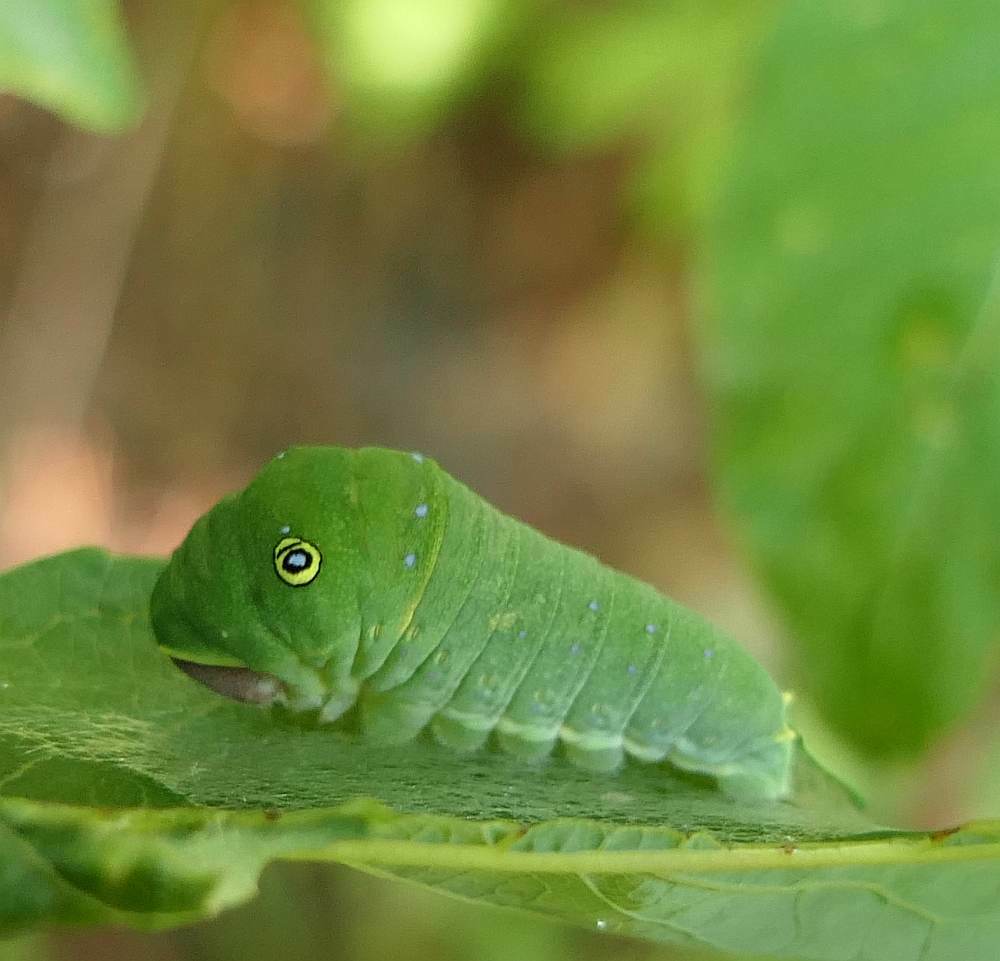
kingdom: Animalia
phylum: Arthropoda
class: Insecta
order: Lepidoptera
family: Papilionidae
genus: Papilio
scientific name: Papilio canadensis
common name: Canadian tiger swallowtail
